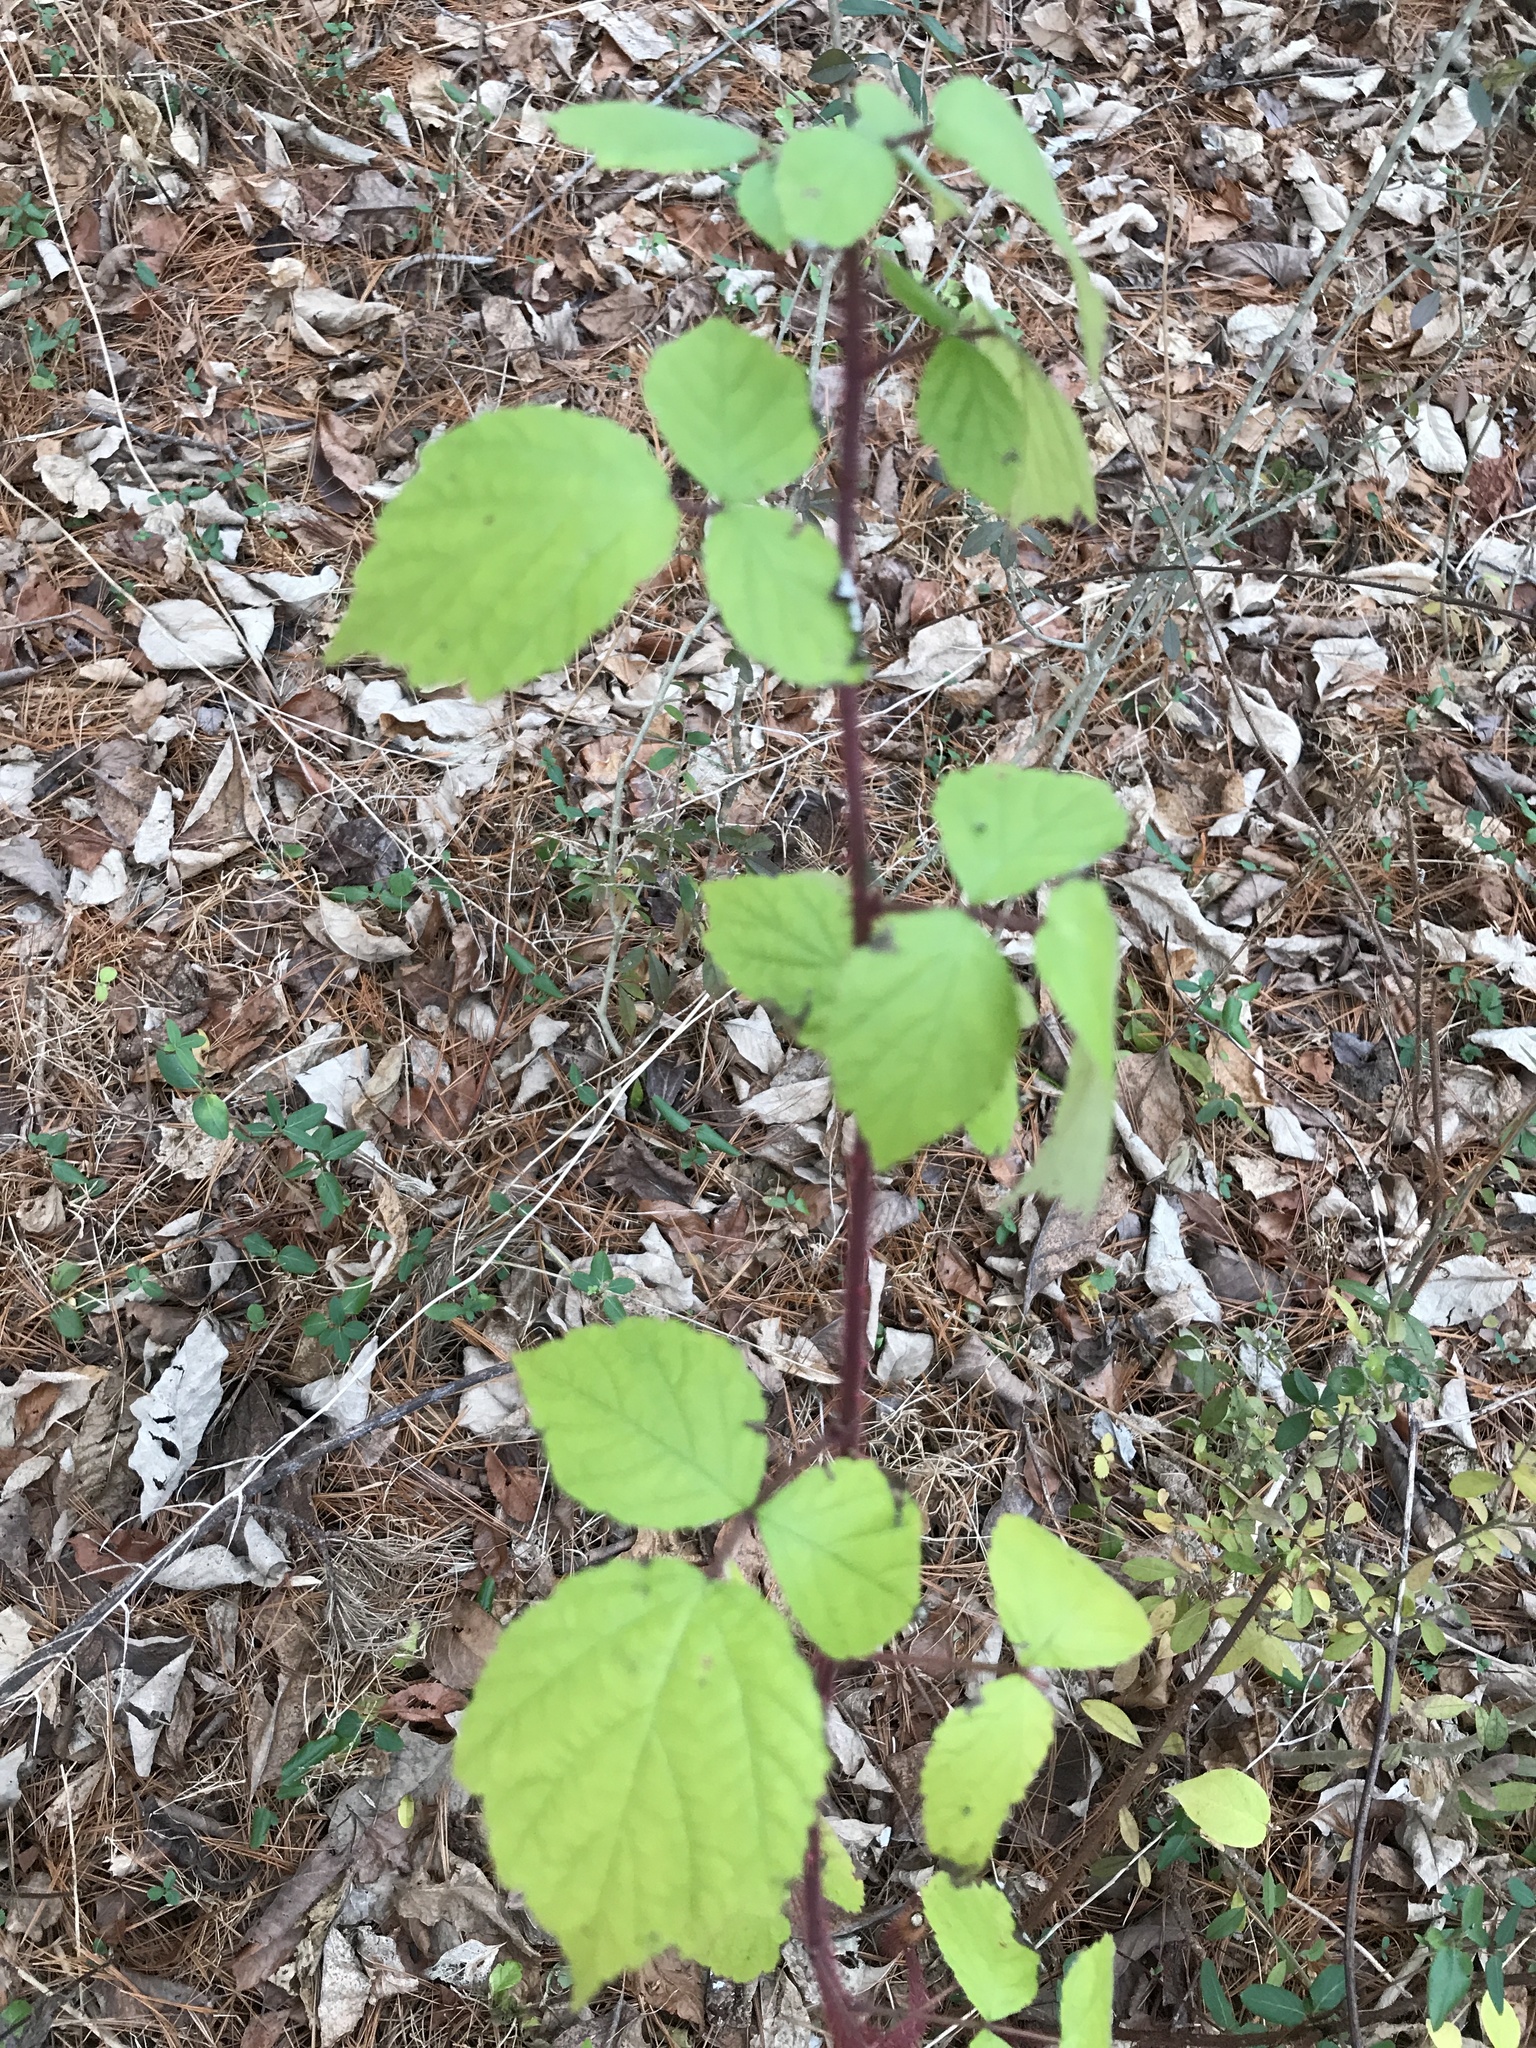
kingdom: Plantae
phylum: Tracheophyta
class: Magnoliopsida
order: Rosales
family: Rosaceae
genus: Rubus
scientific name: Rubus phoenicolasius
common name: Japanese wineberry
